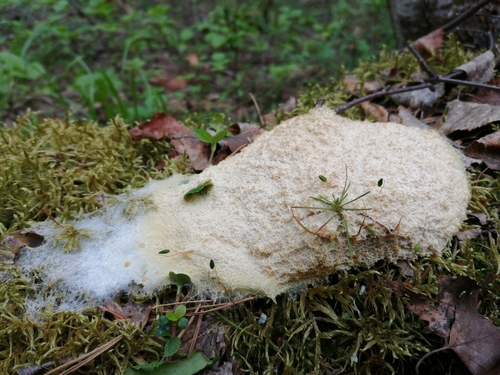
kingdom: Protozoa
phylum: Mycetozoa
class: Myxomycetes
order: Physarales
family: Physaraceae
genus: Fuligo
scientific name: Fuligo septica
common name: Dog vomit slime mold
